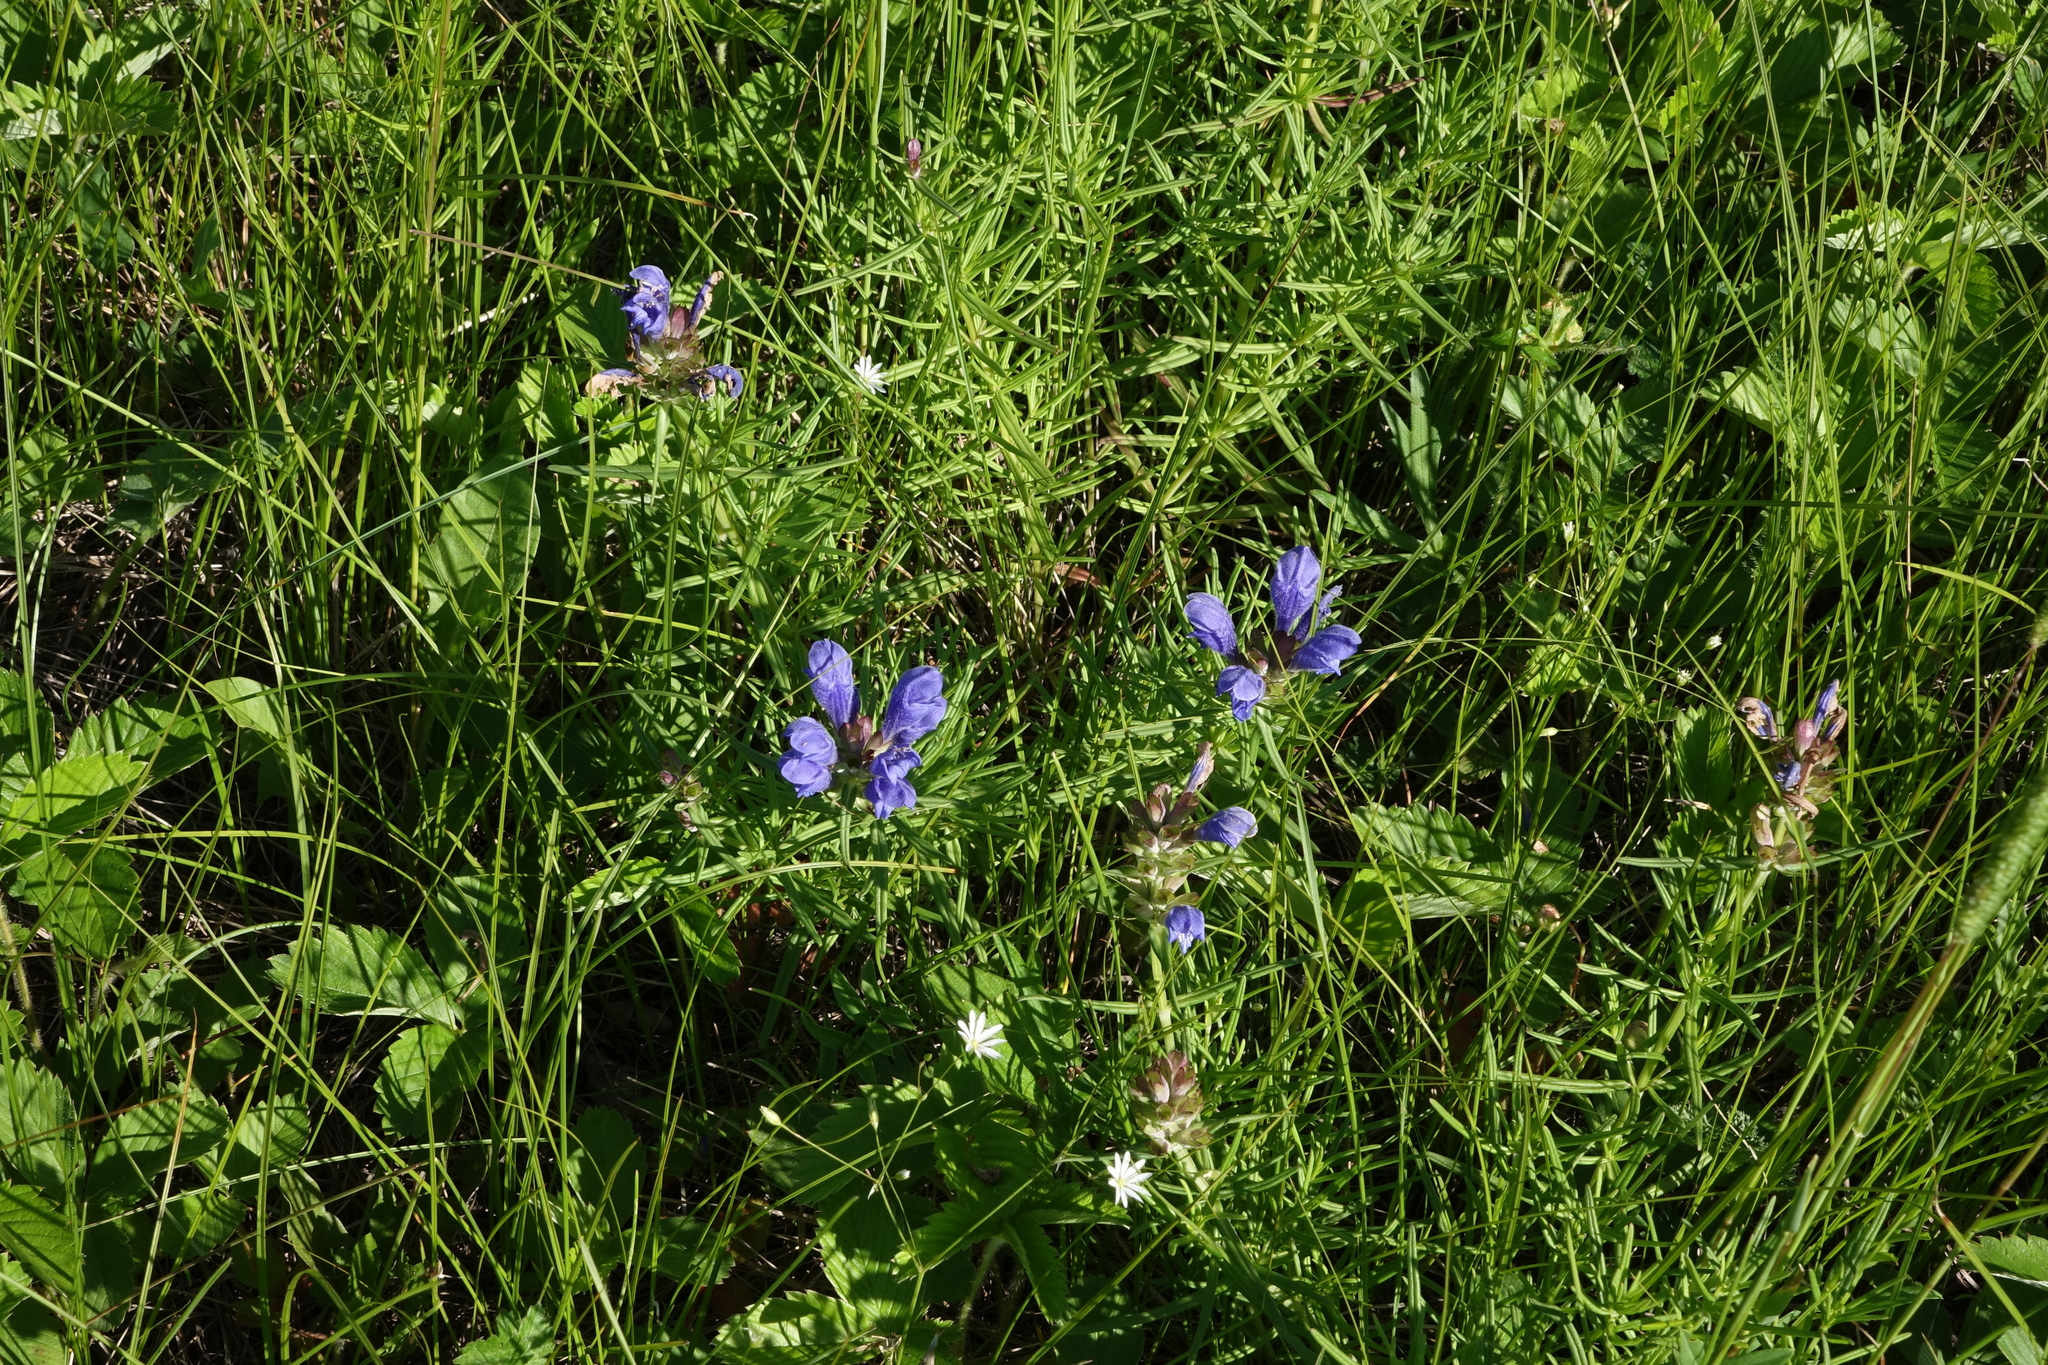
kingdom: Plantae
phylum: Tracheophyta
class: Magnoliopsida
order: Lamiales
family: Lamiaceae
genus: Dracocephalum
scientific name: Dracocephalum ruyschiana
